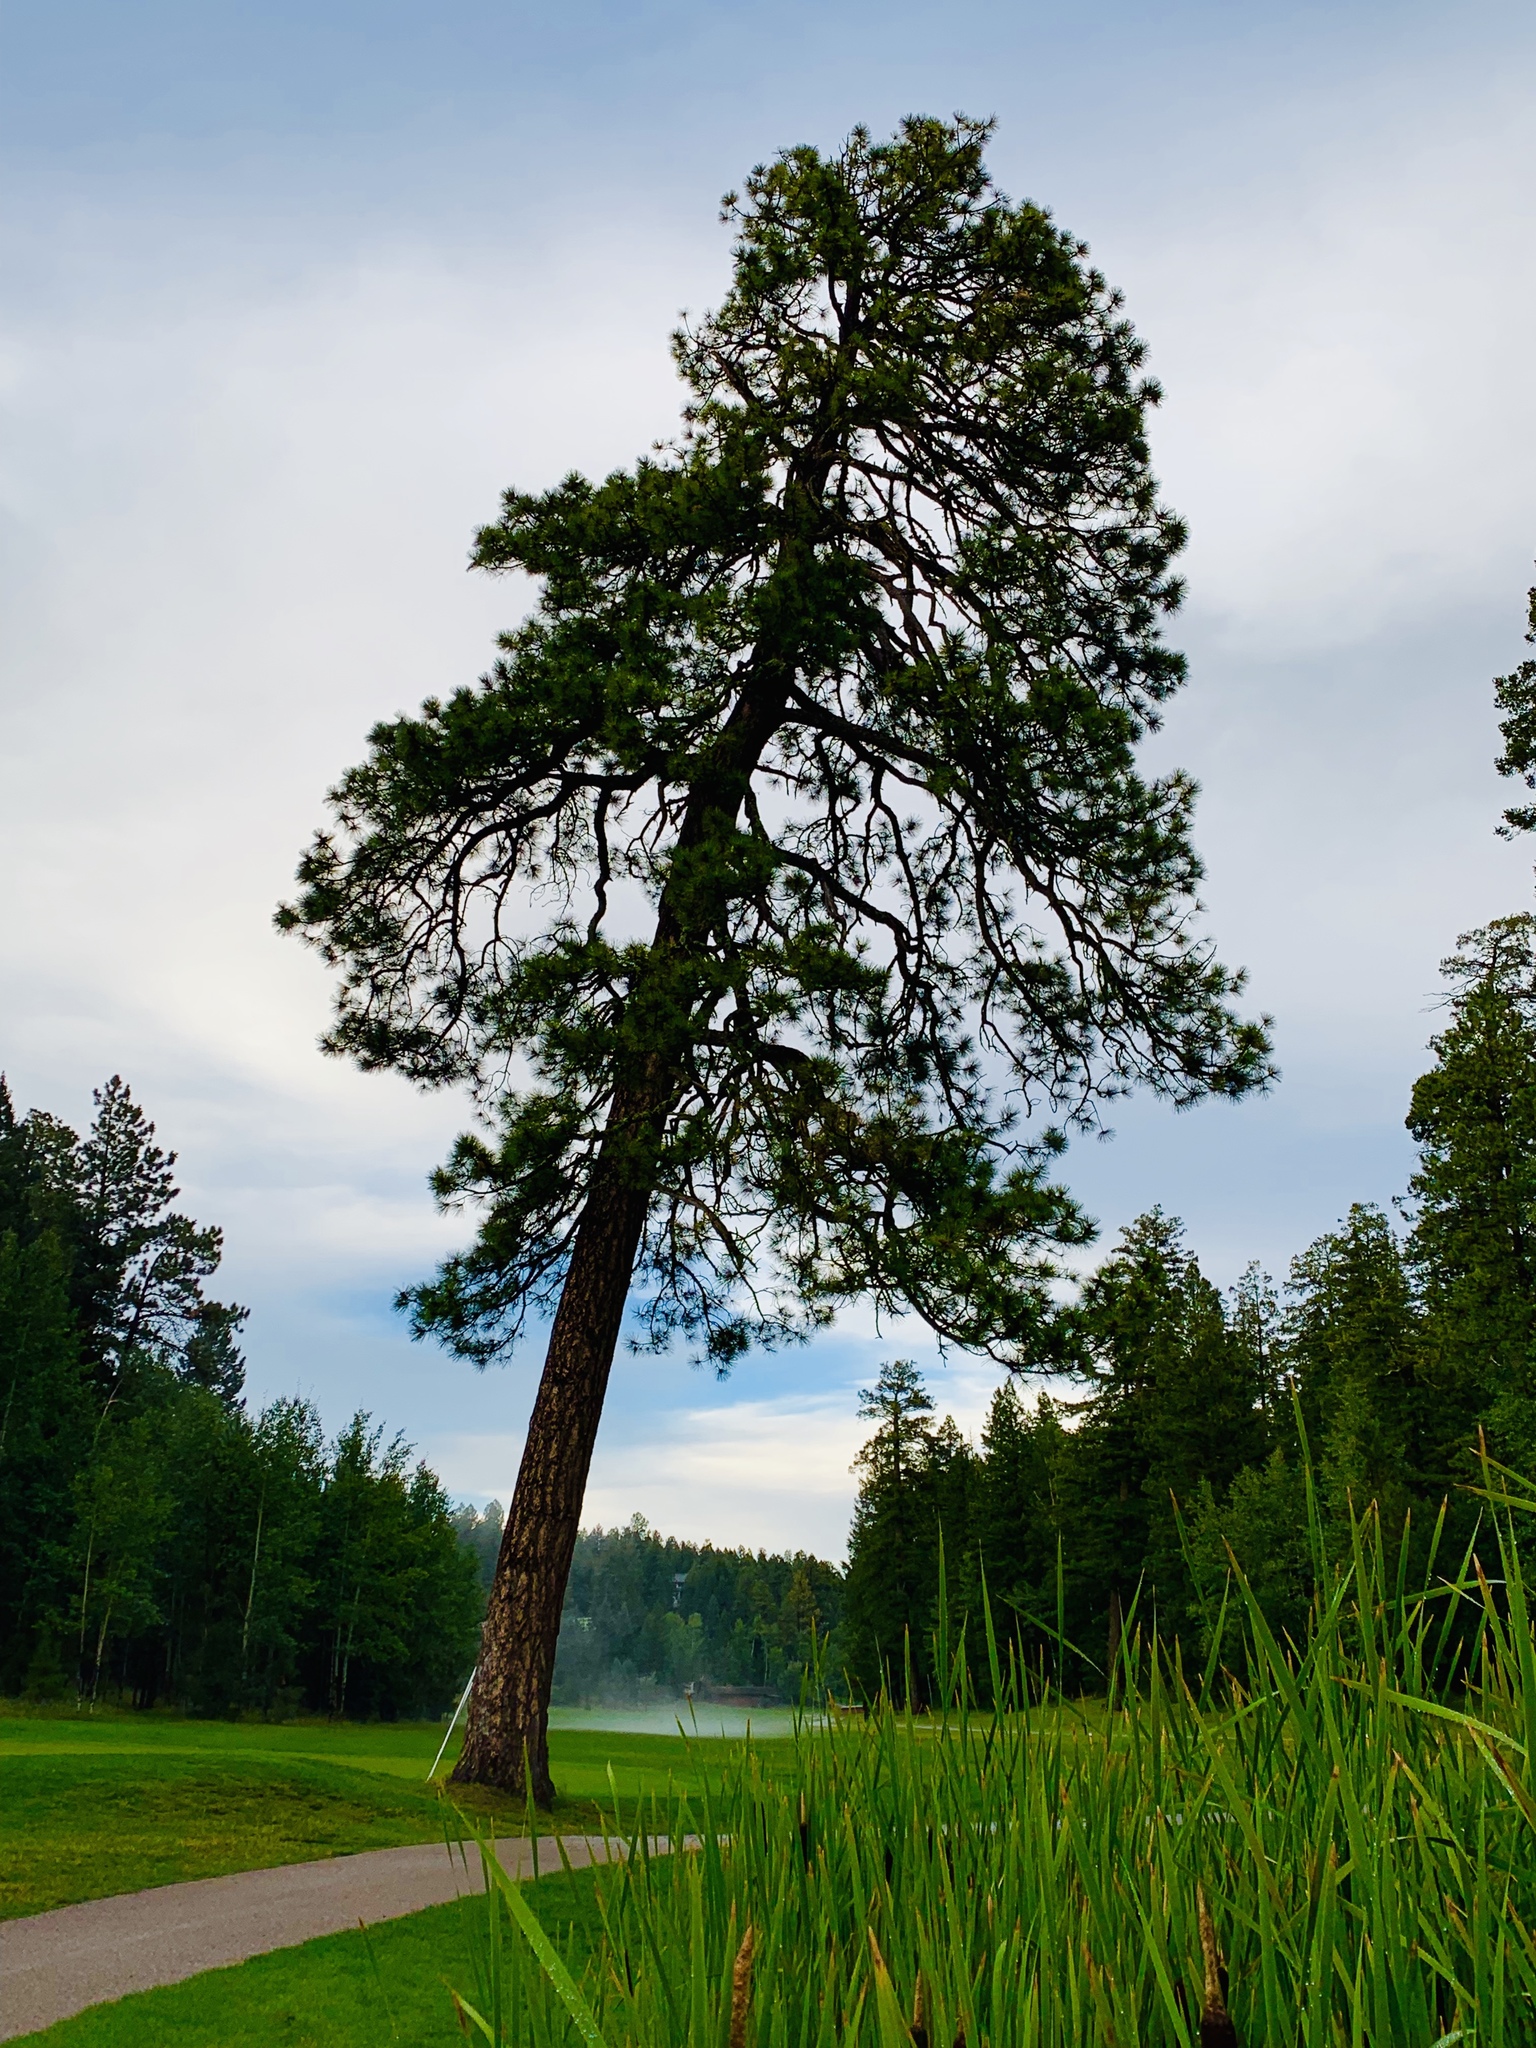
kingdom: Plantae
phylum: Tracheophyta
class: Pinopsida
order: Pinales
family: Pinaceae
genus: Pinus
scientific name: Pinus ponderosa
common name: Western yellow-pine
